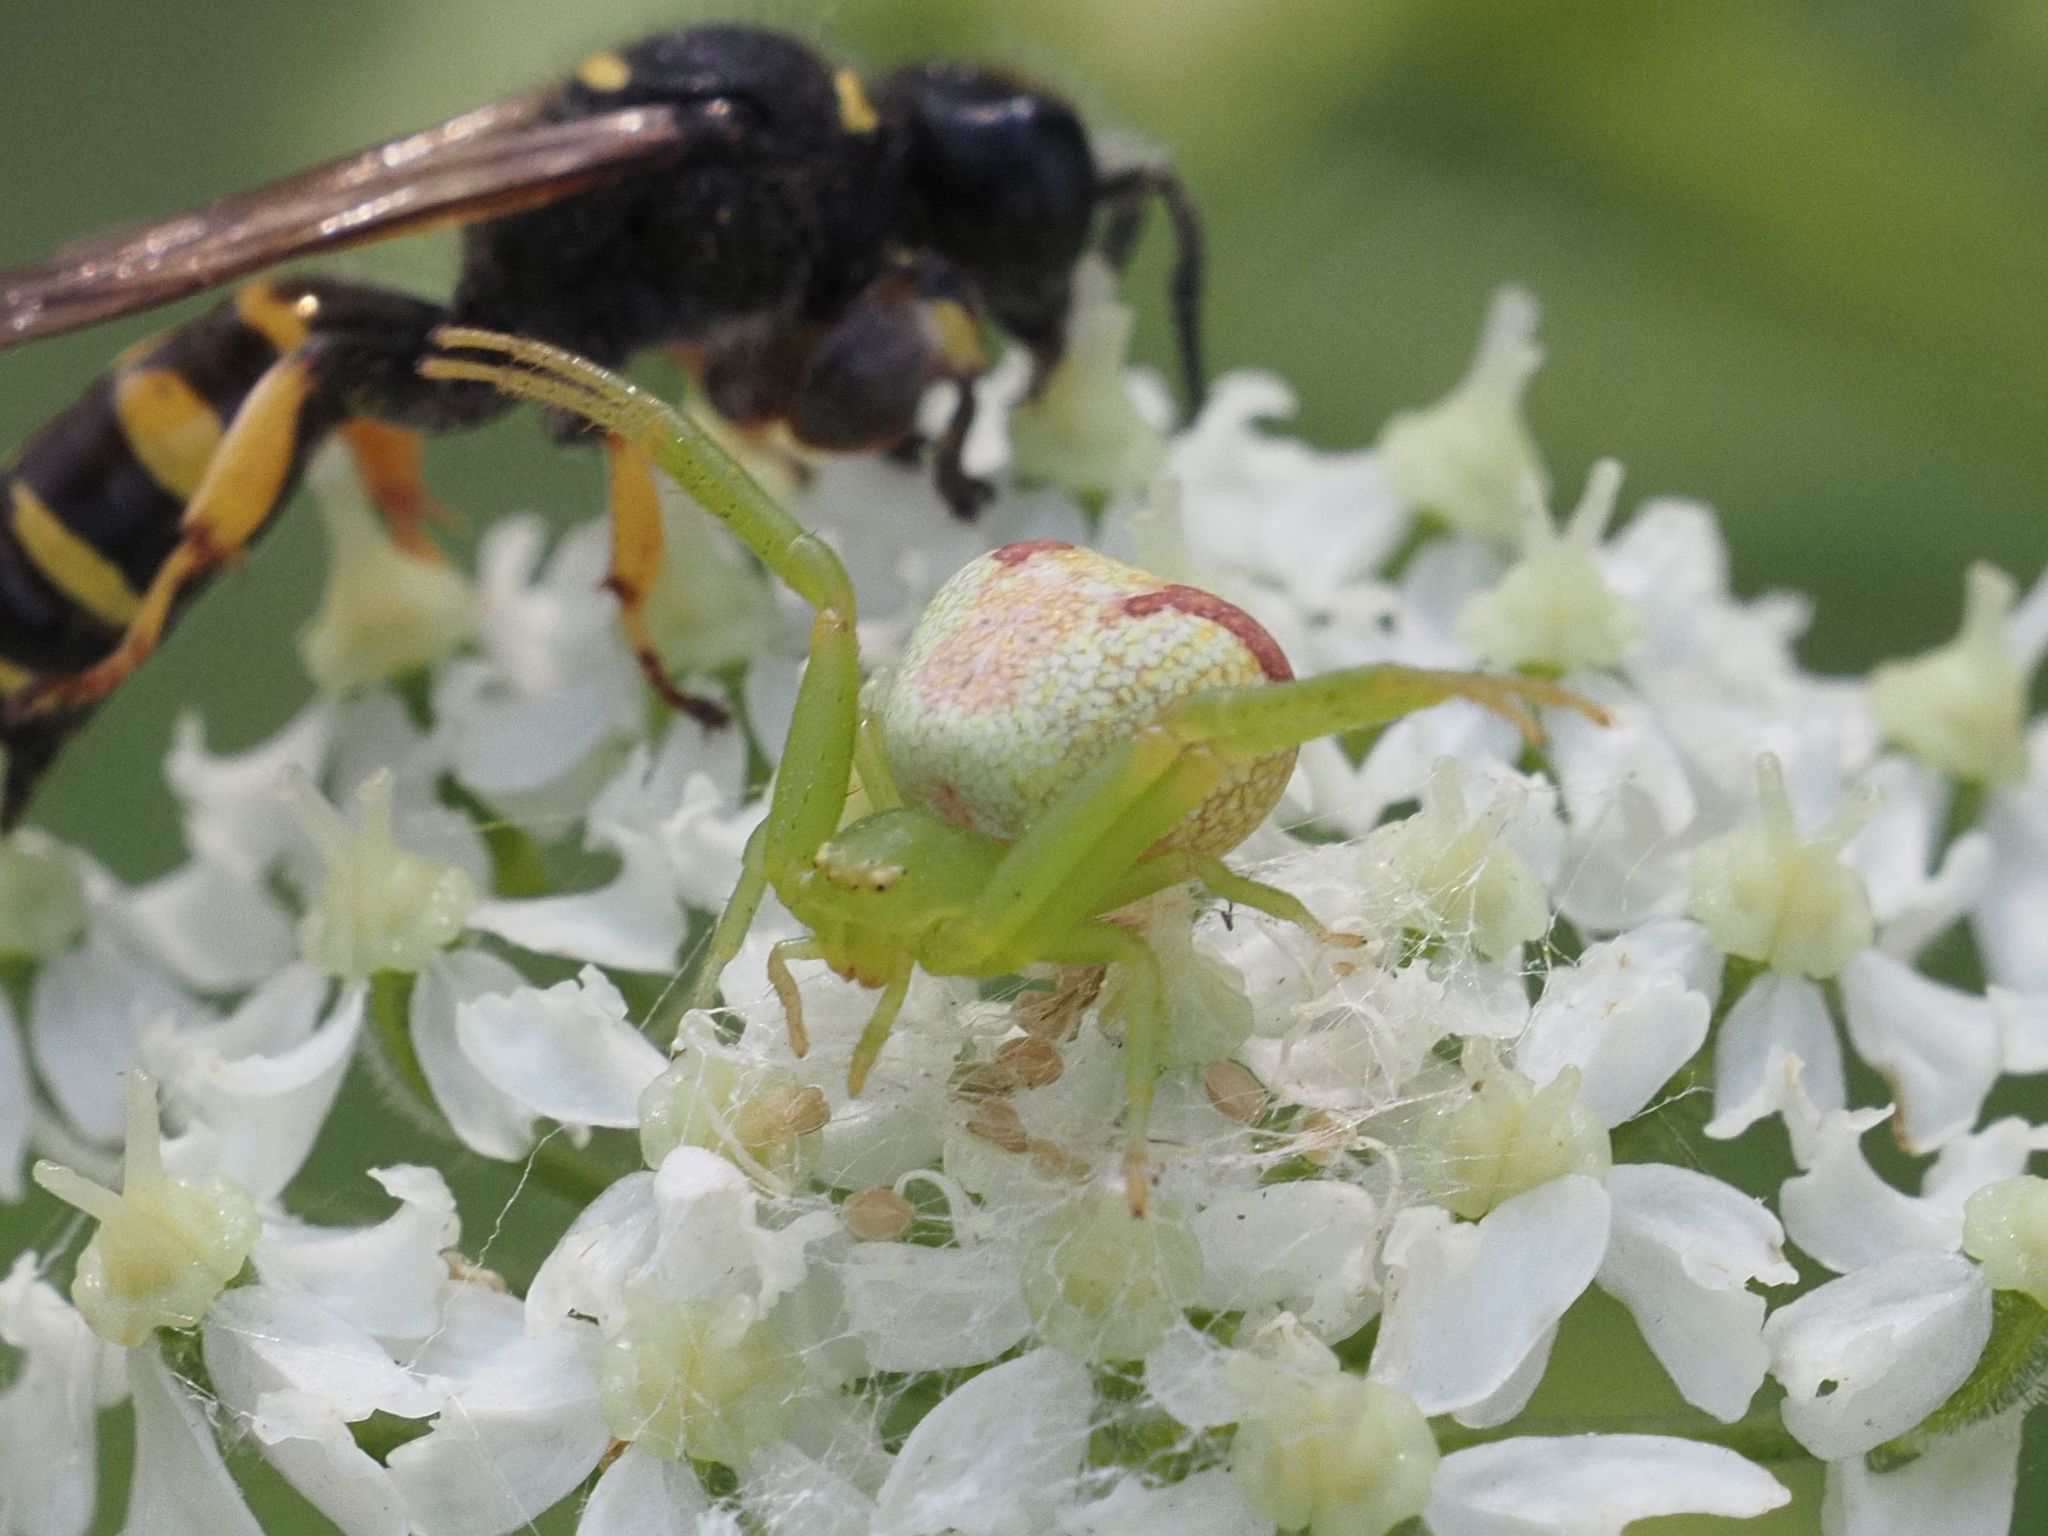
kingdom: Animalia
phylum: Arthropoda
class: Arachnida
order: Araneae
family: Thomisidae
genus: Ebrechtella
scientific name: Ebrechtella tricuspidata
